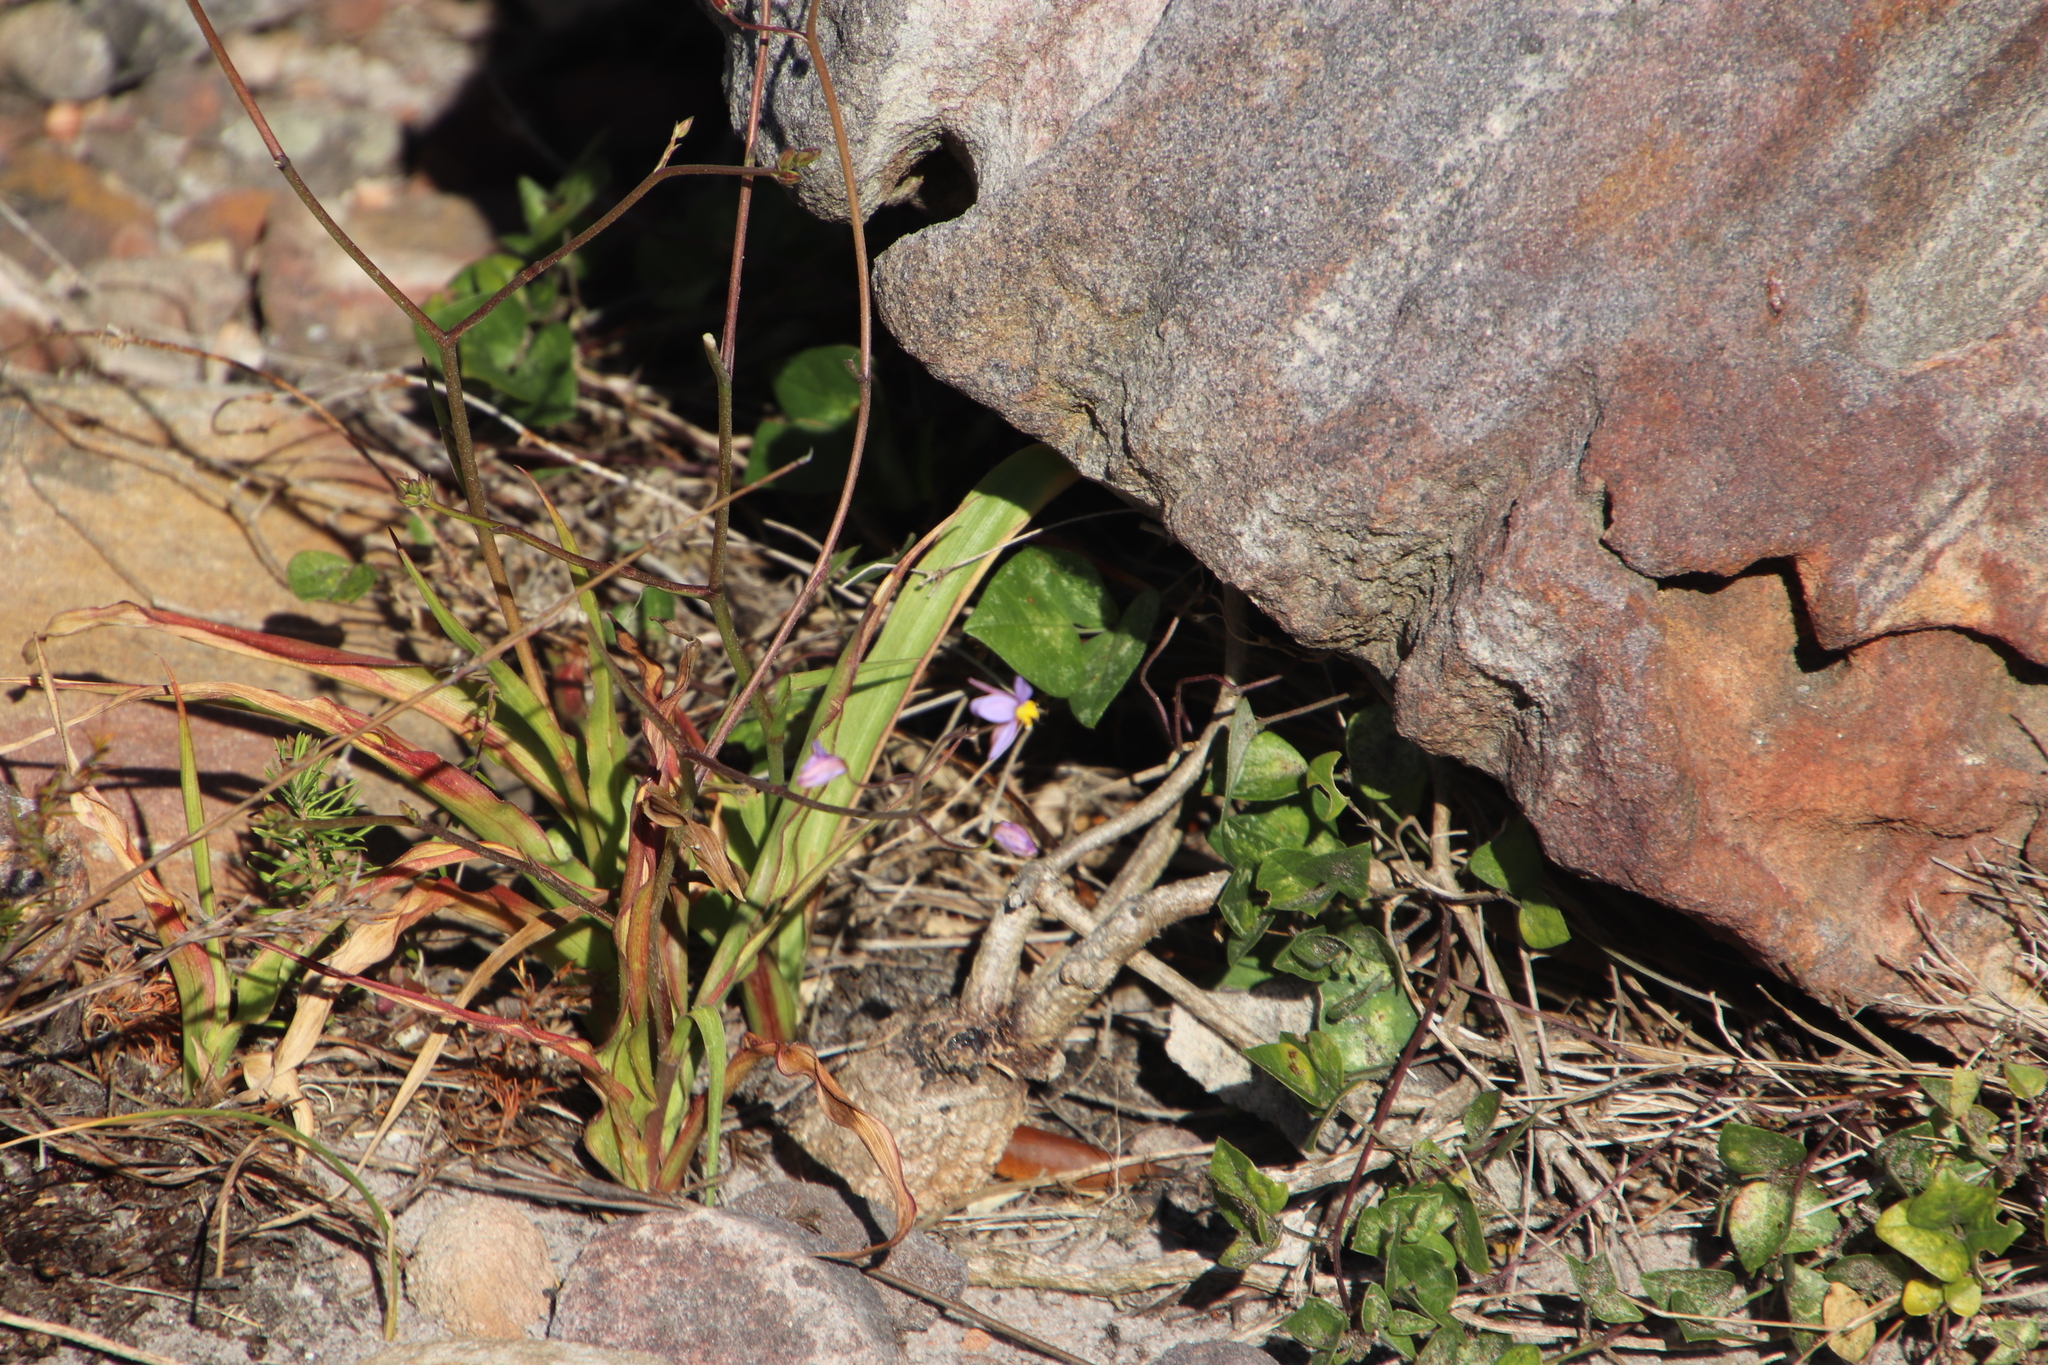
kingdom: Plantae
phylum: Tracheophyta
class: Liliopsida
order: Asparagales
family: Tecophilaeaceae
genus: Cyanella
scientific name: Cyanella hyacinthoides
